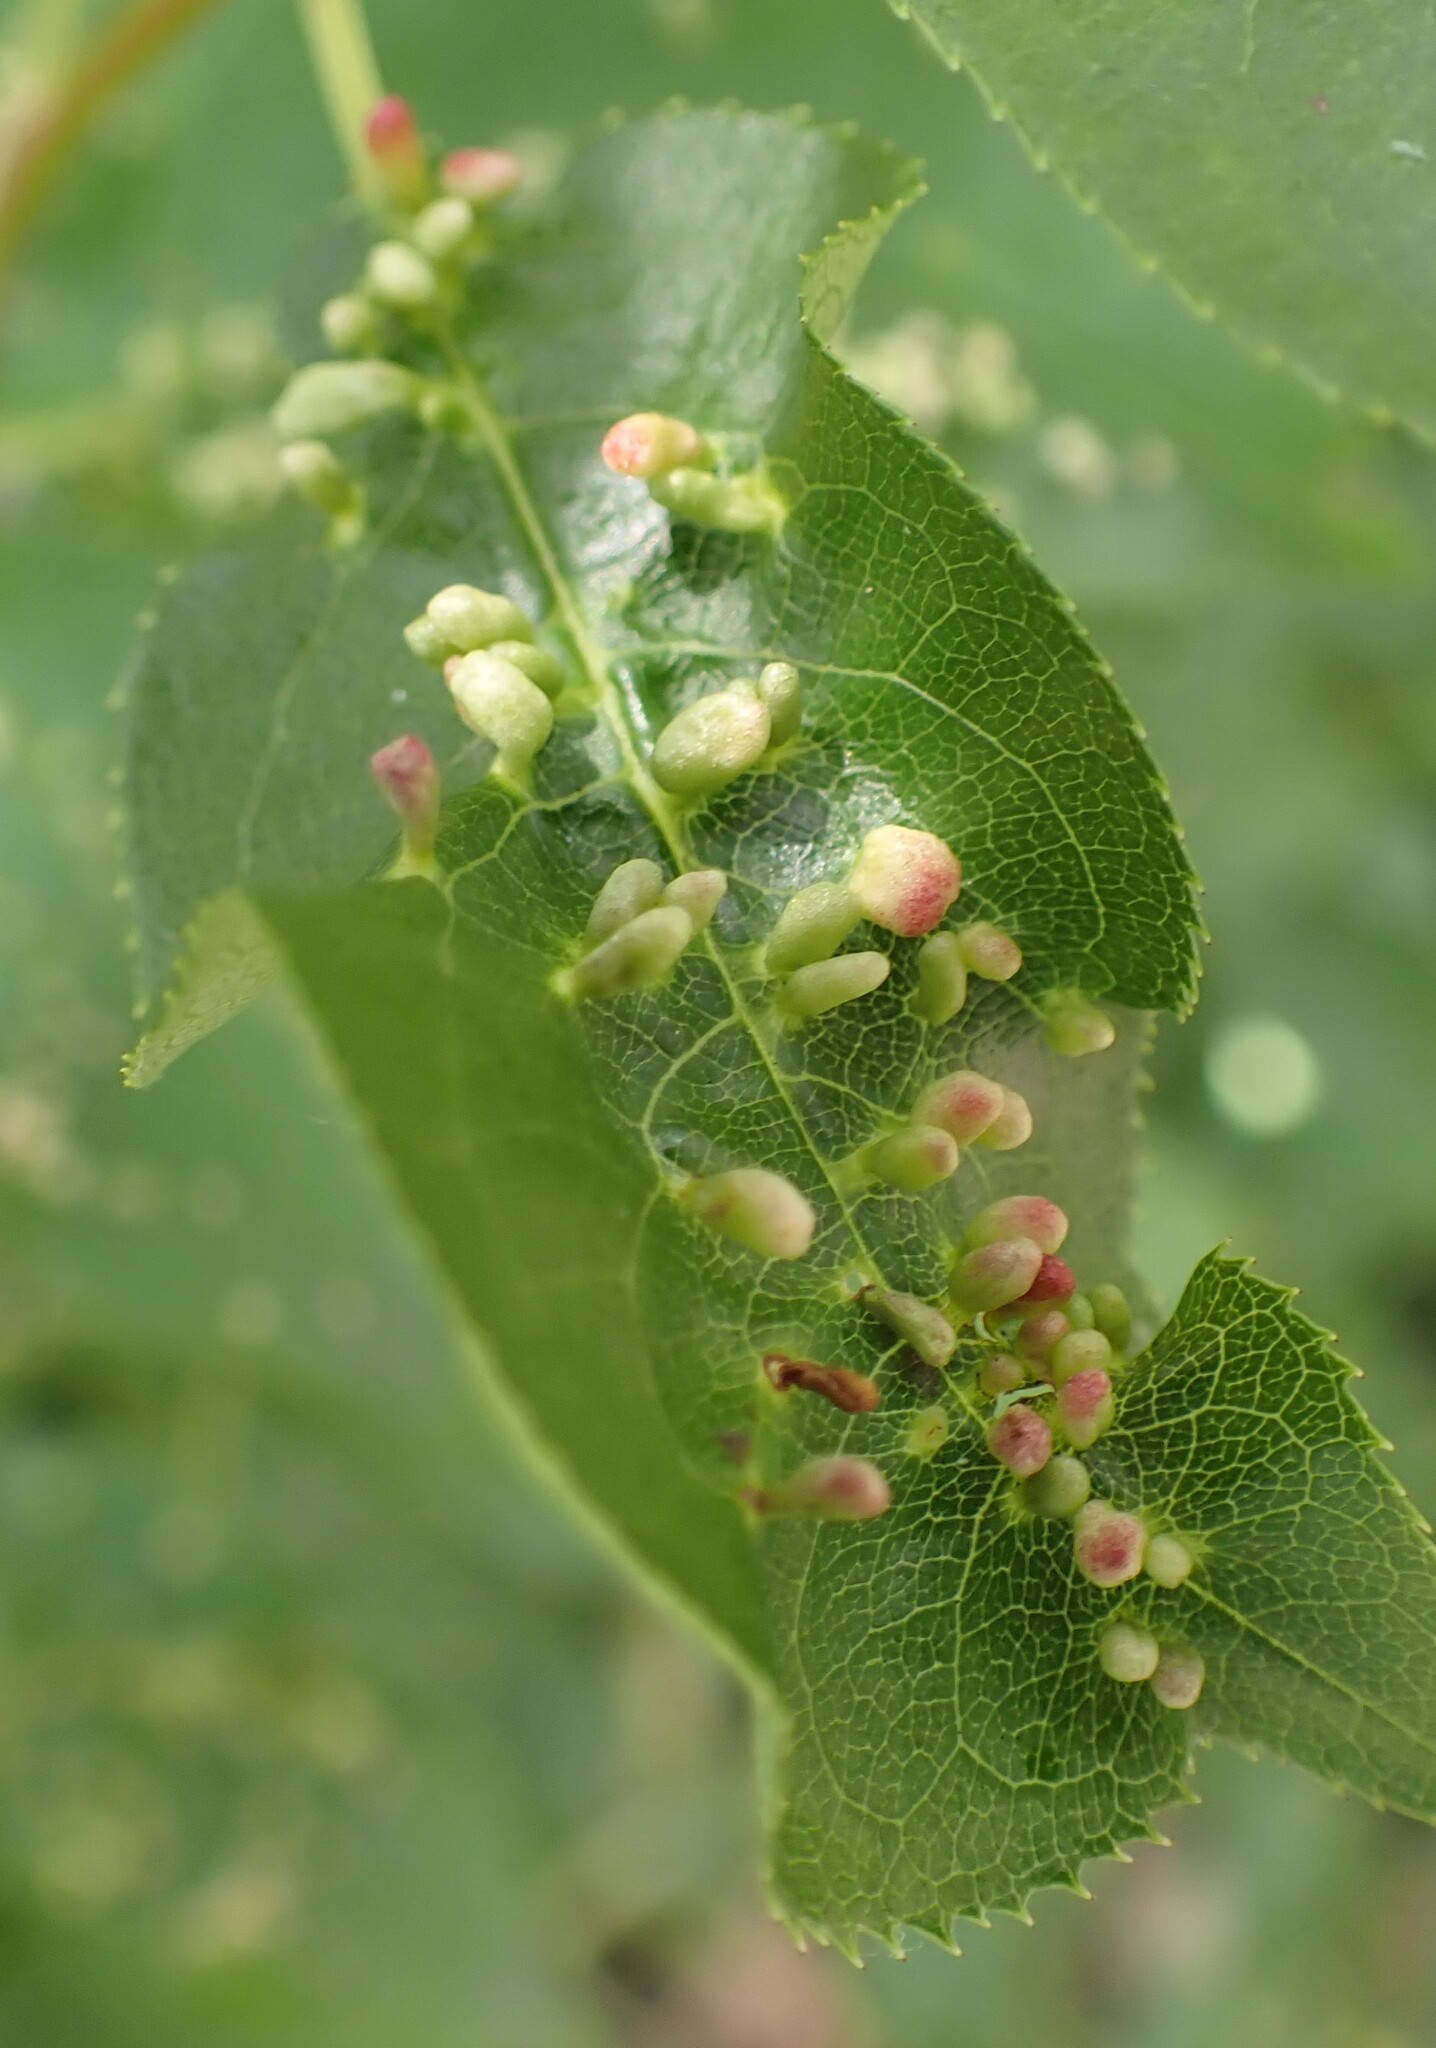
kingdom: Animalia
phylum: Arthropoda
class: Arachnida
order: Trombidiformes
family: Eriophyidae
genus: Eriophyes
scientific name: Eriophyes emarginatae
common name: Plum leaf gall mite
